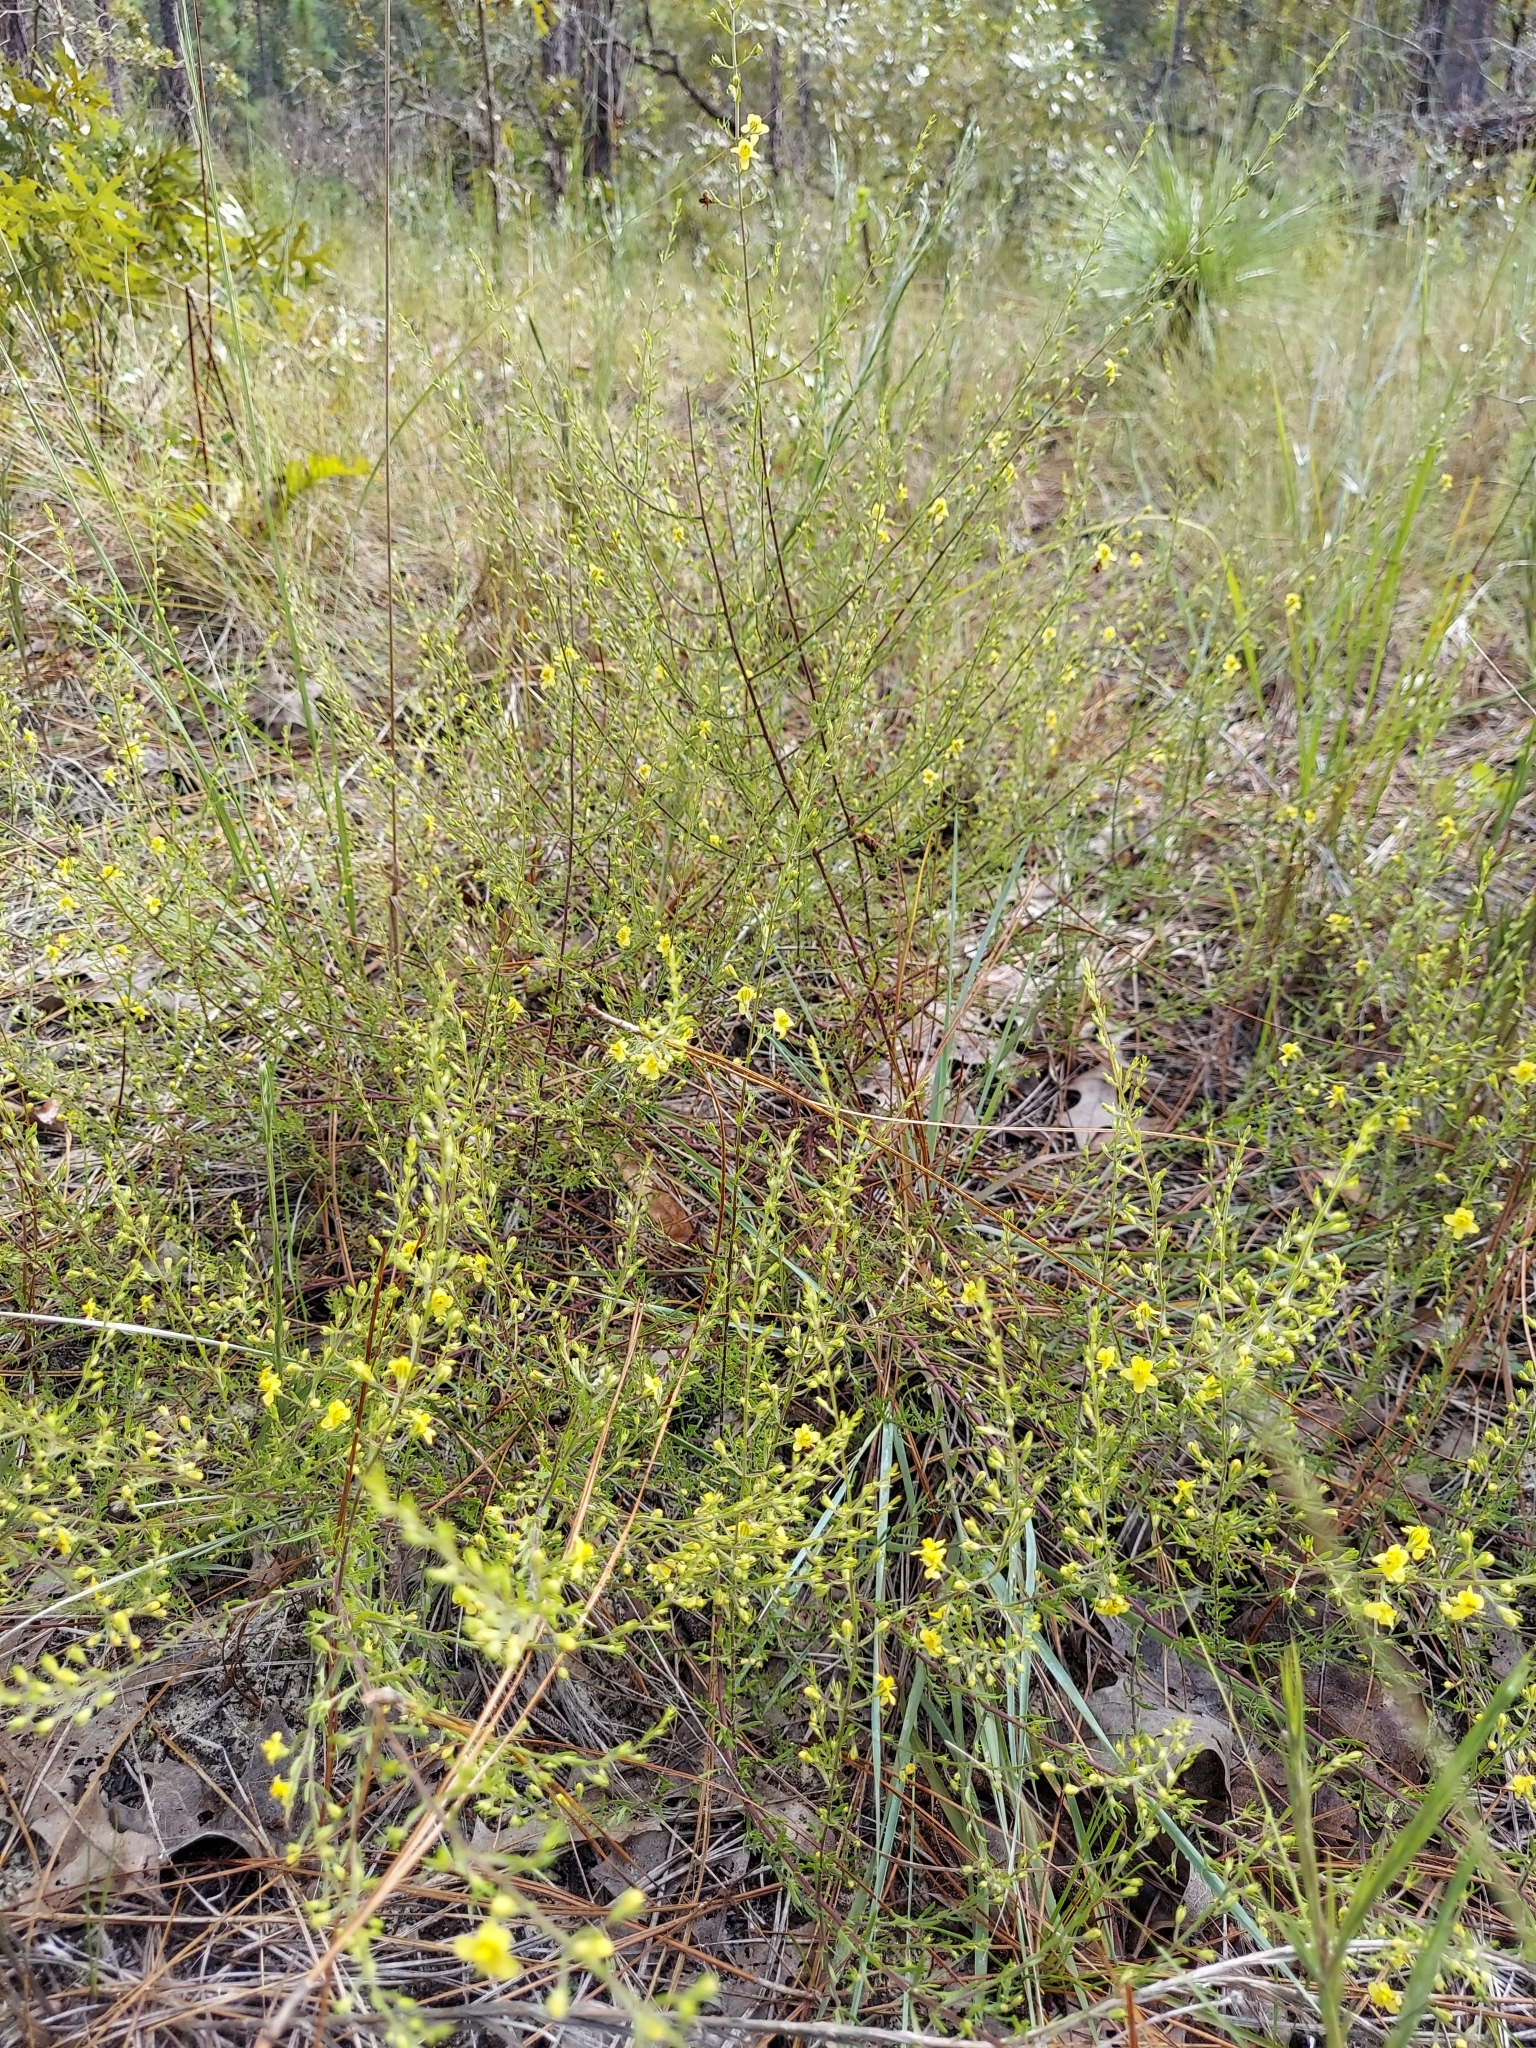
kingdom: Plantae
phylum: Tracheophyta
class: Magnoliopsida
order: Lamiales
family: Orobanchaceae
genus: Seymeria
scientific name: Seymeria pectinata
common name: Piedmont black-senna
